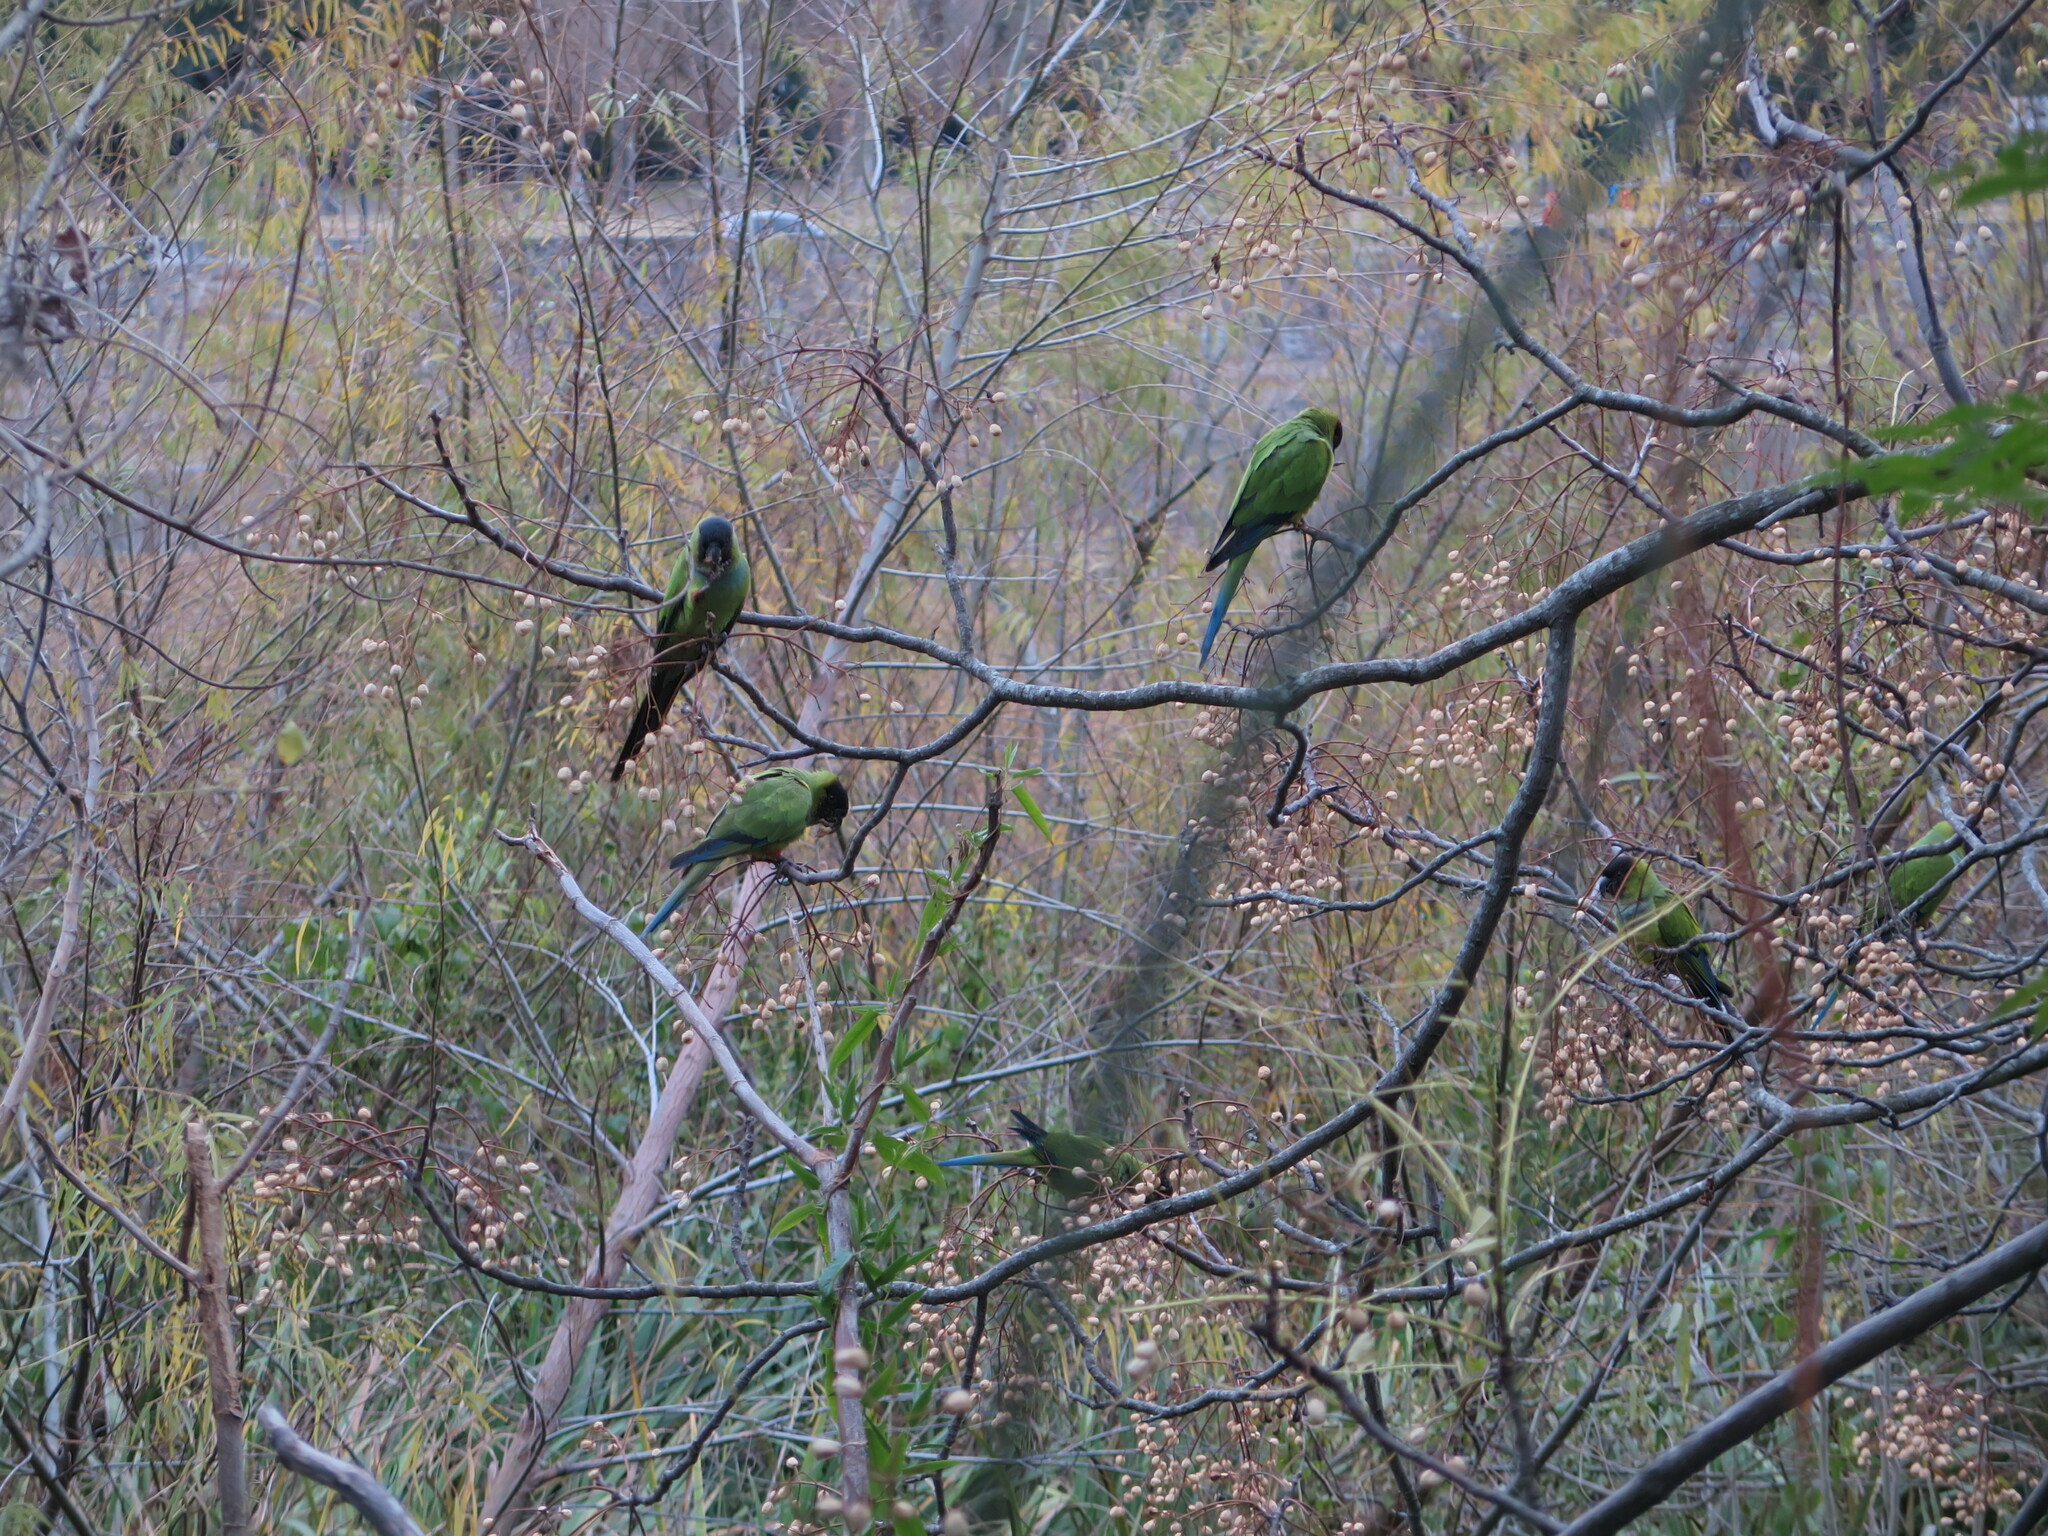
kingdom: Animalia
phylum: Chordata
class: Aves
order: Psittaciformes
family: Psittacidae
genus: Nandayus
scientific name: Nandayus nenday
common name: Nanday parakeet
